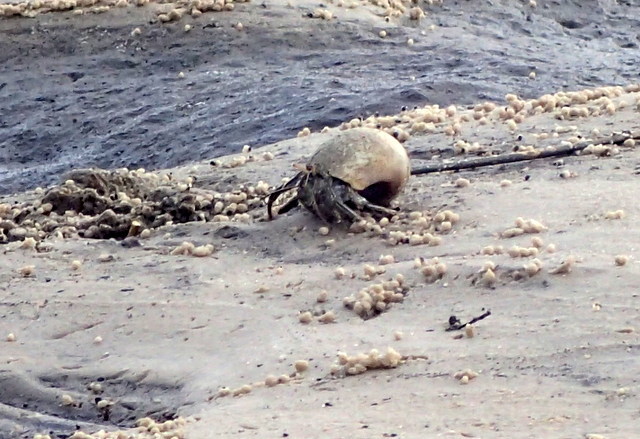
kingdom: Animalia
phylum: Arthropoda
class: Malacostraca
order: Decapoda
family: Diogenidae
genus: Clibanarius
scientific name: Clibanarius vittatus
